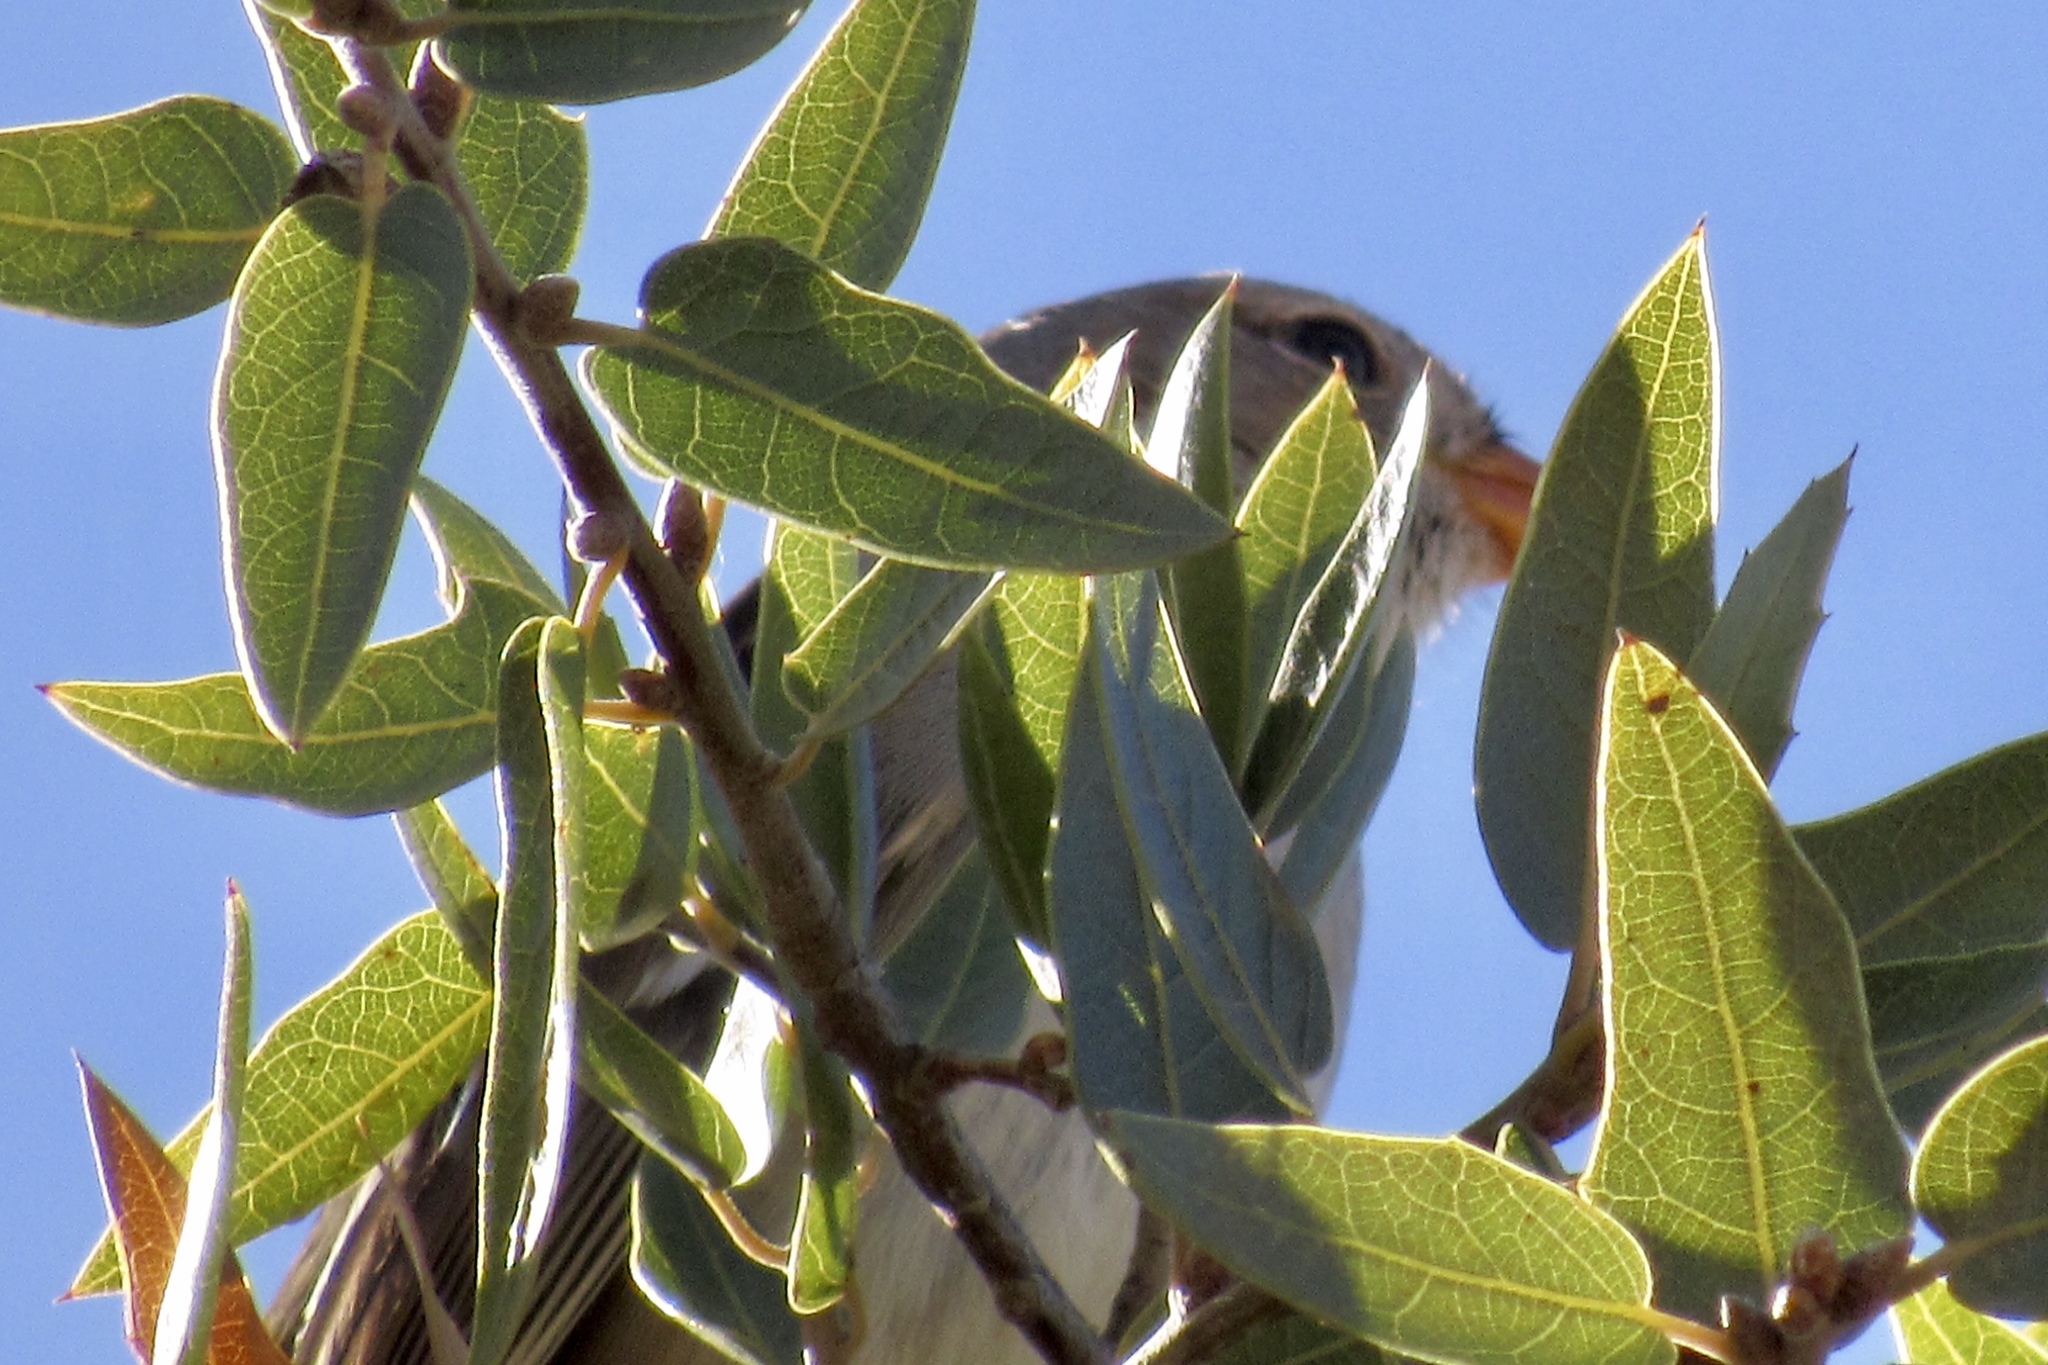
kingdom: Animalia
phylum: Chordata
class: Aves
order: Passeriformes
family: Passerellidae
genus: Zonotrichia
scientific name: Zonotrichia leucophrys
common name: White-crowned sparrow
